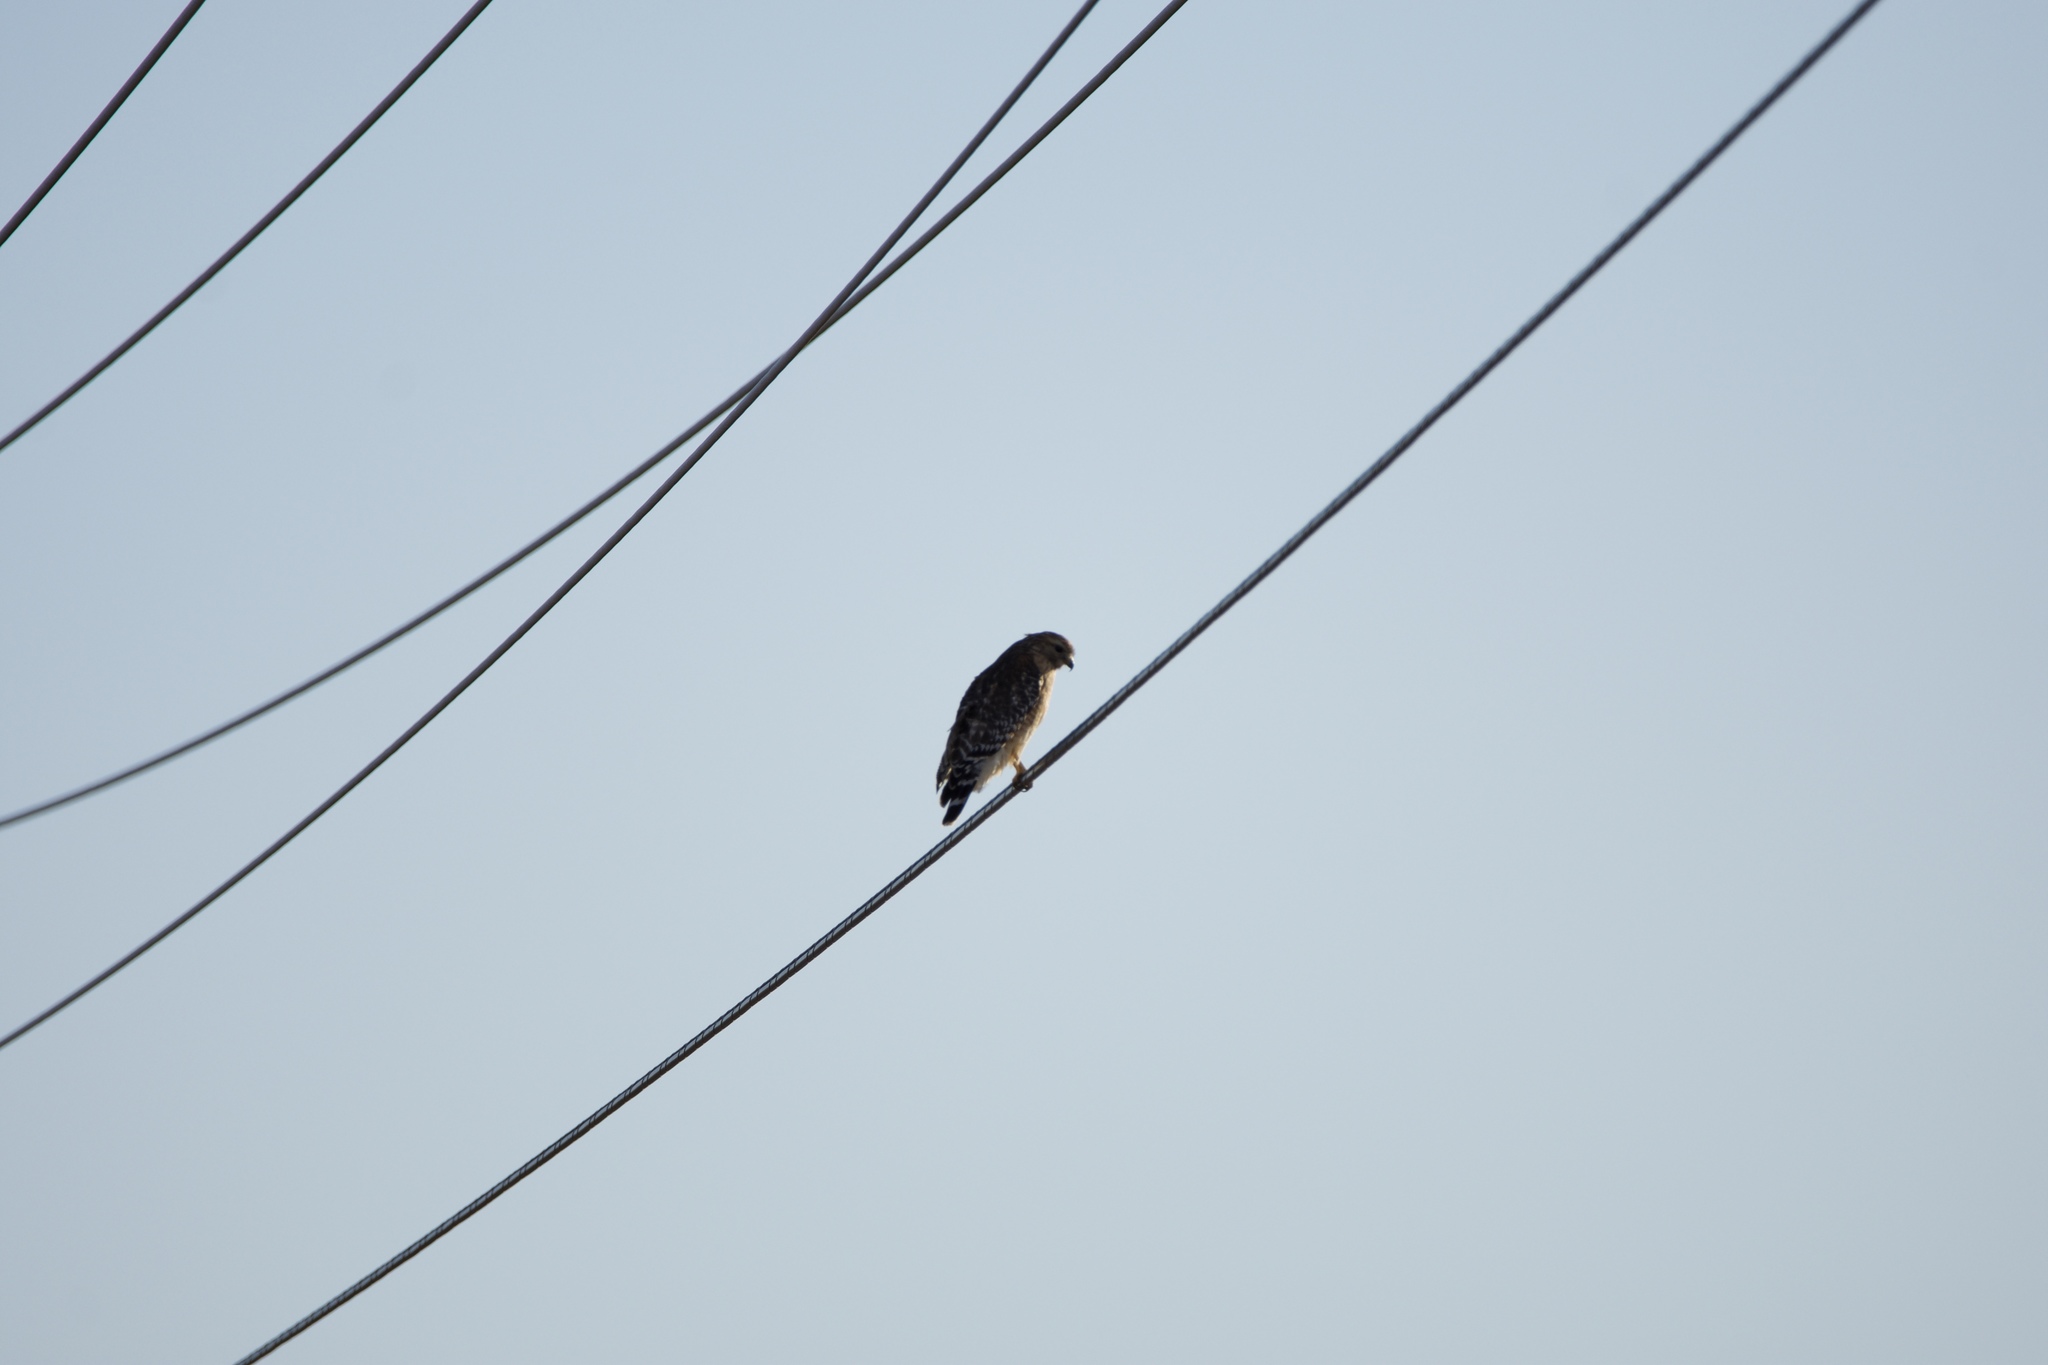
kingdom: Animalia
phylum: Chordata
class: Aves
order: Accipitriformes
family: Accipitridae
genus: Buteo
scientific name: Buteo lineatus
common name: Red-shouldered hawk
